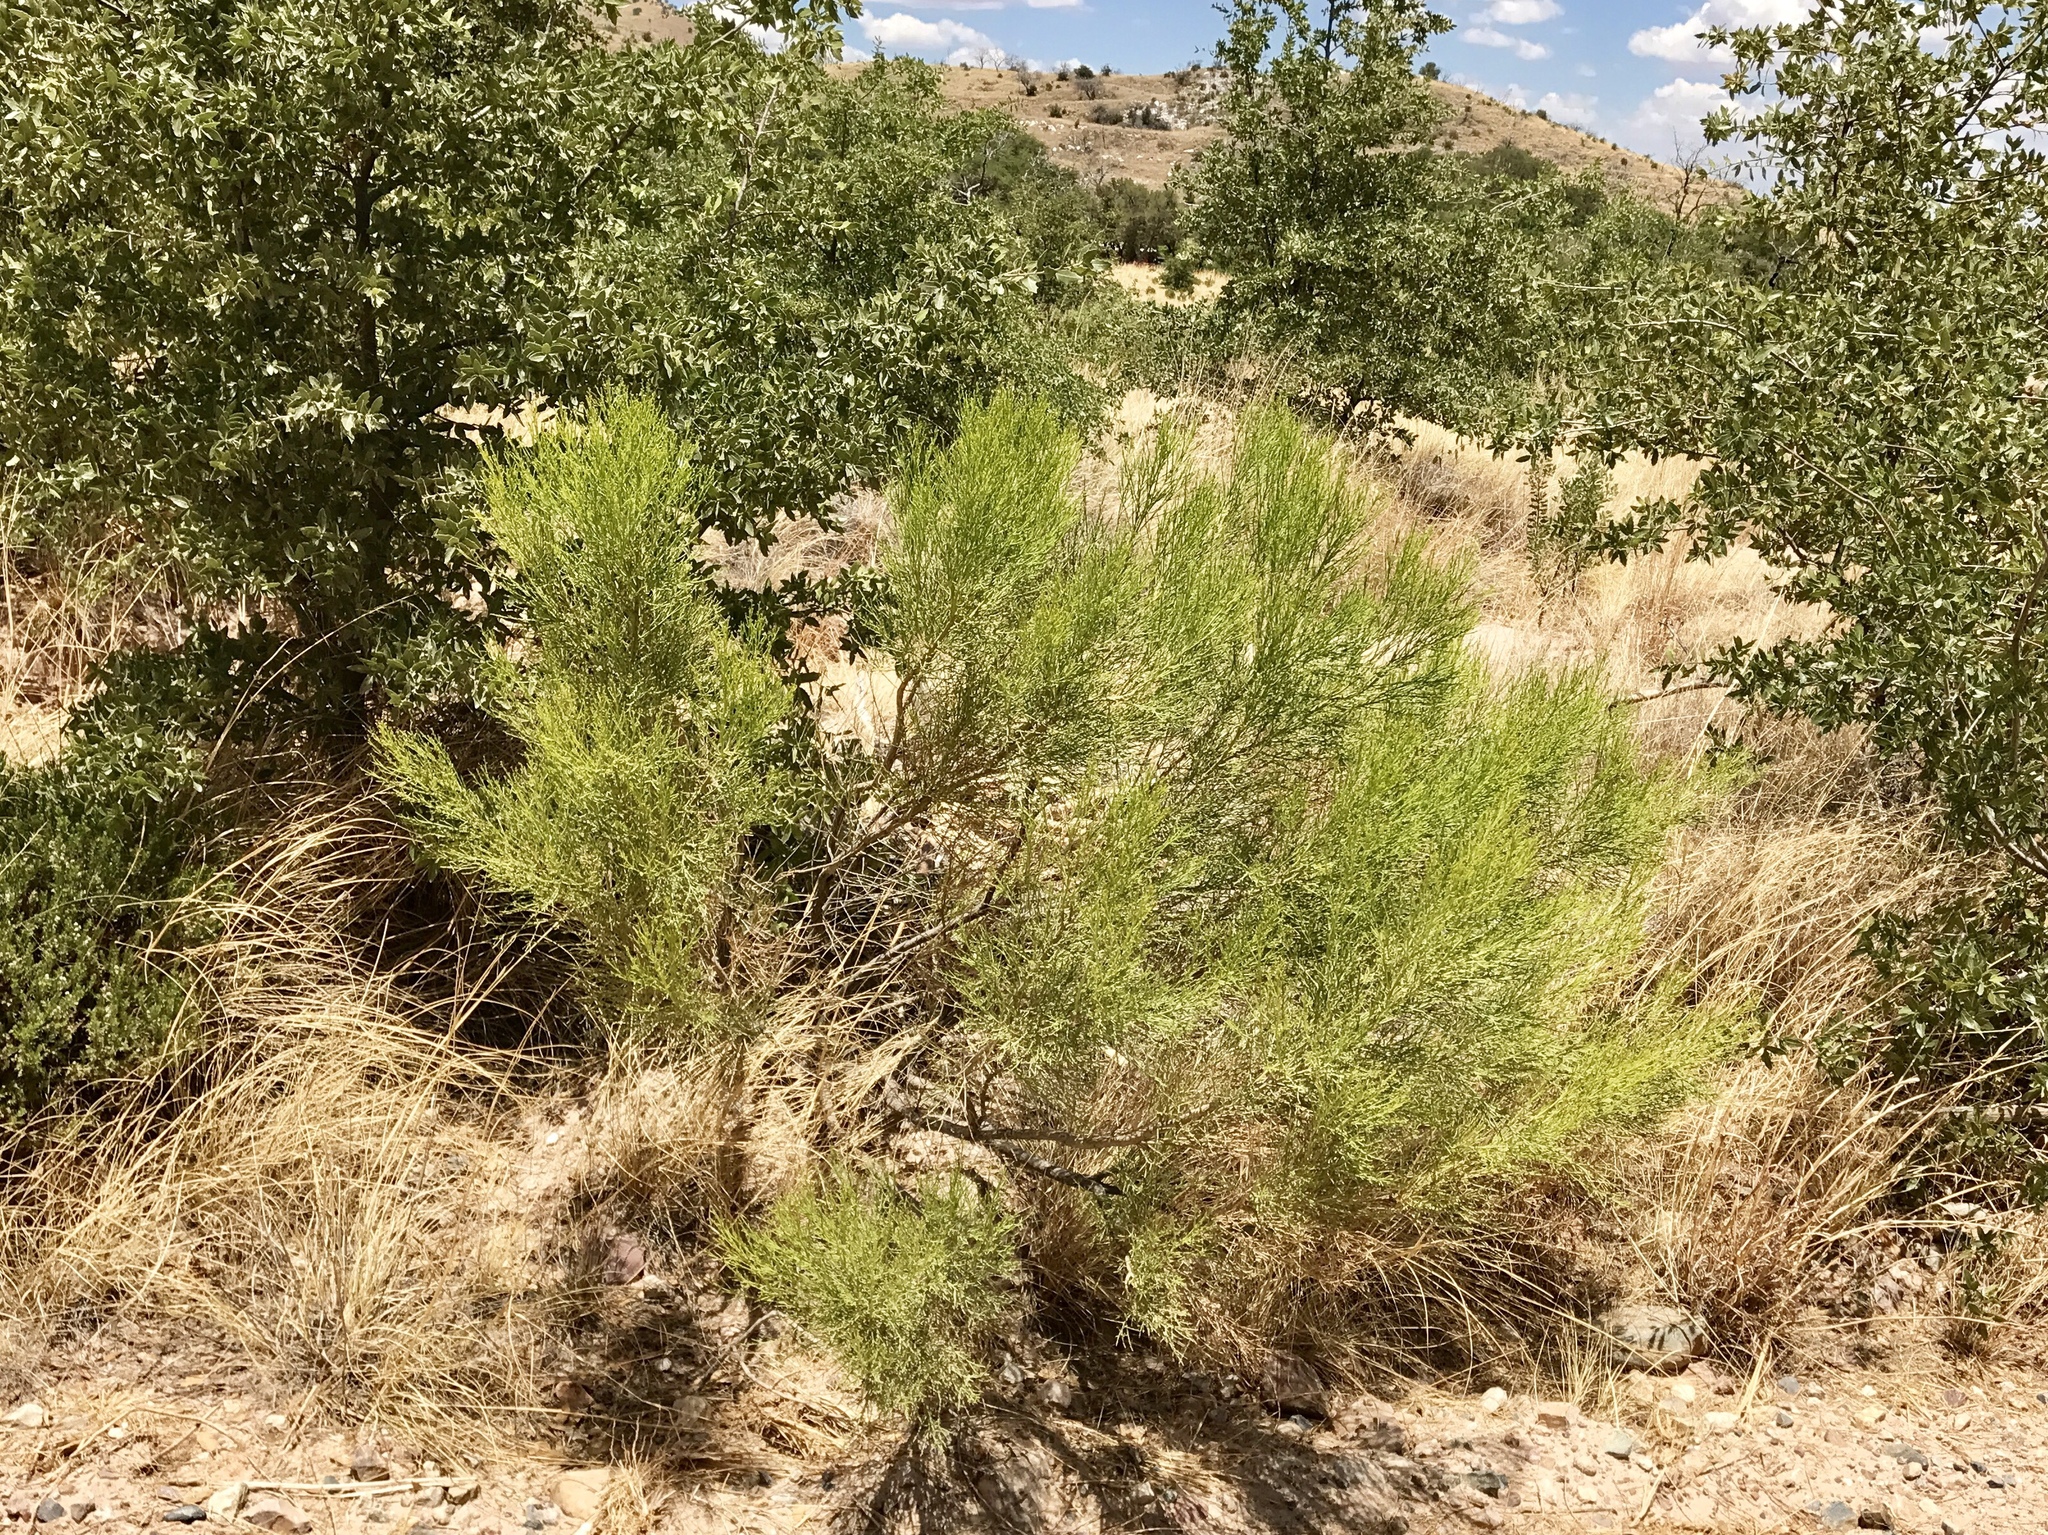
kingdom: Plantae
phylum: Tracheophyta
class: Magnoliopsida
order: Asterales
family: Asteraceae
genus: Baccharis
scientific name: Baccharis sarothroides
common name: Desert-broom
